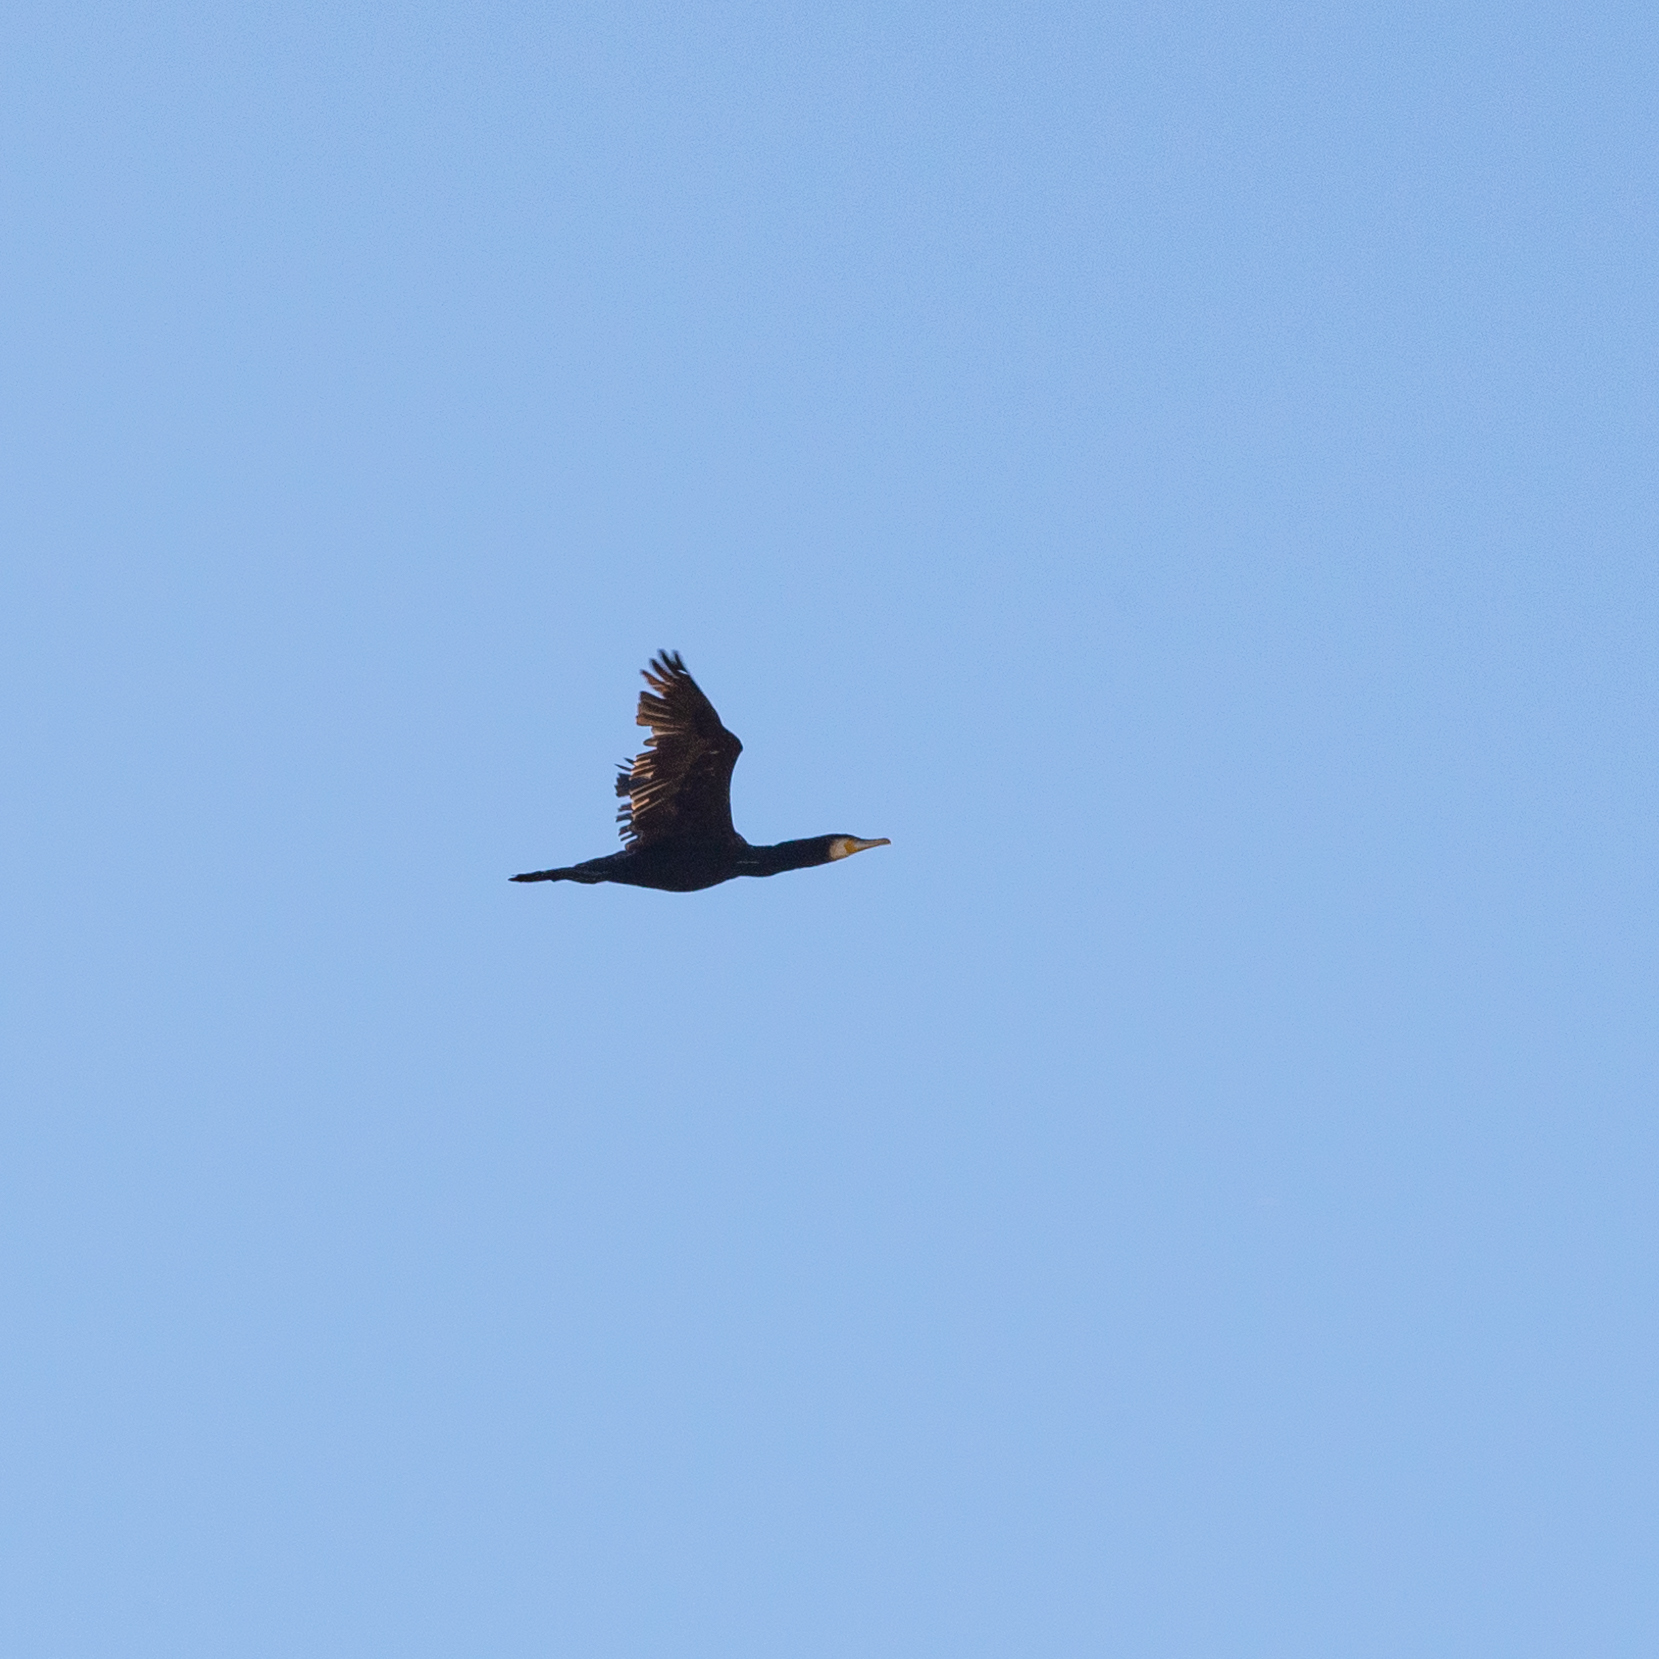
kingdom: Animalia
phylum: Chordata
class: Aves
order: Suliformes
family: Phalacrocoracidae
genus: Phalacrocorax
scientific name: Phalacrocorax carbo
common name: Great cormorant
